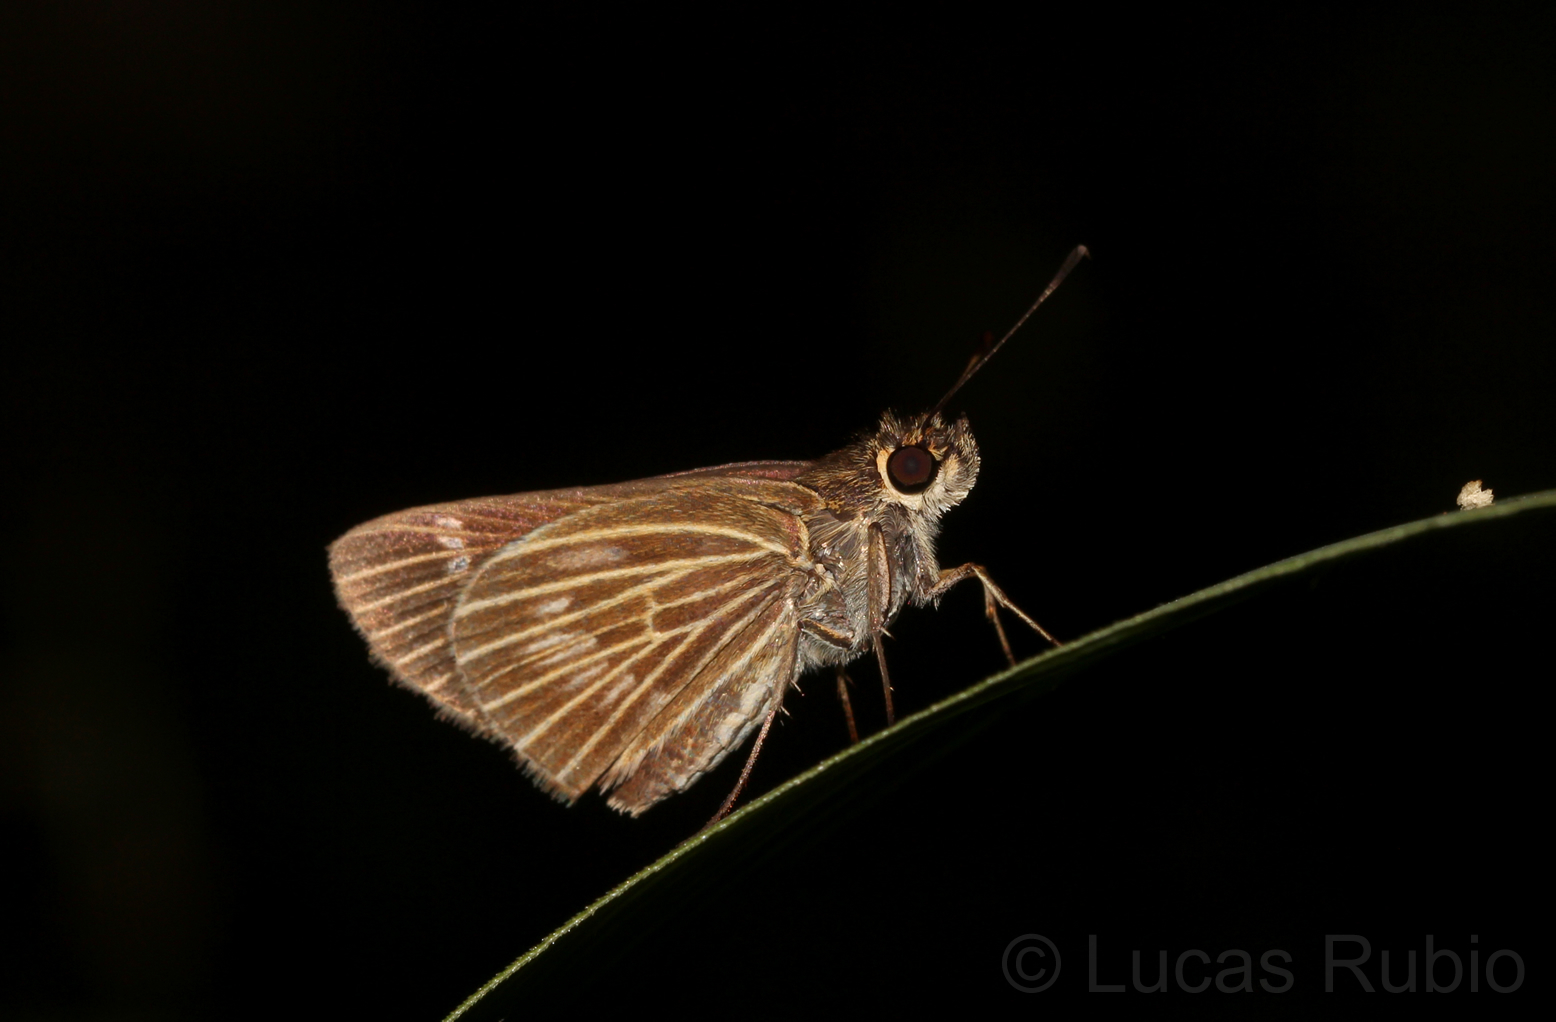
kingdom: Animalia
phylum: Arthropoda
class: Insecta
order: Lepidoptera
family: Hesperiidae
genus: Vehilius
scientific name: Vehilius stictomenes
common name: Pasture skipper
